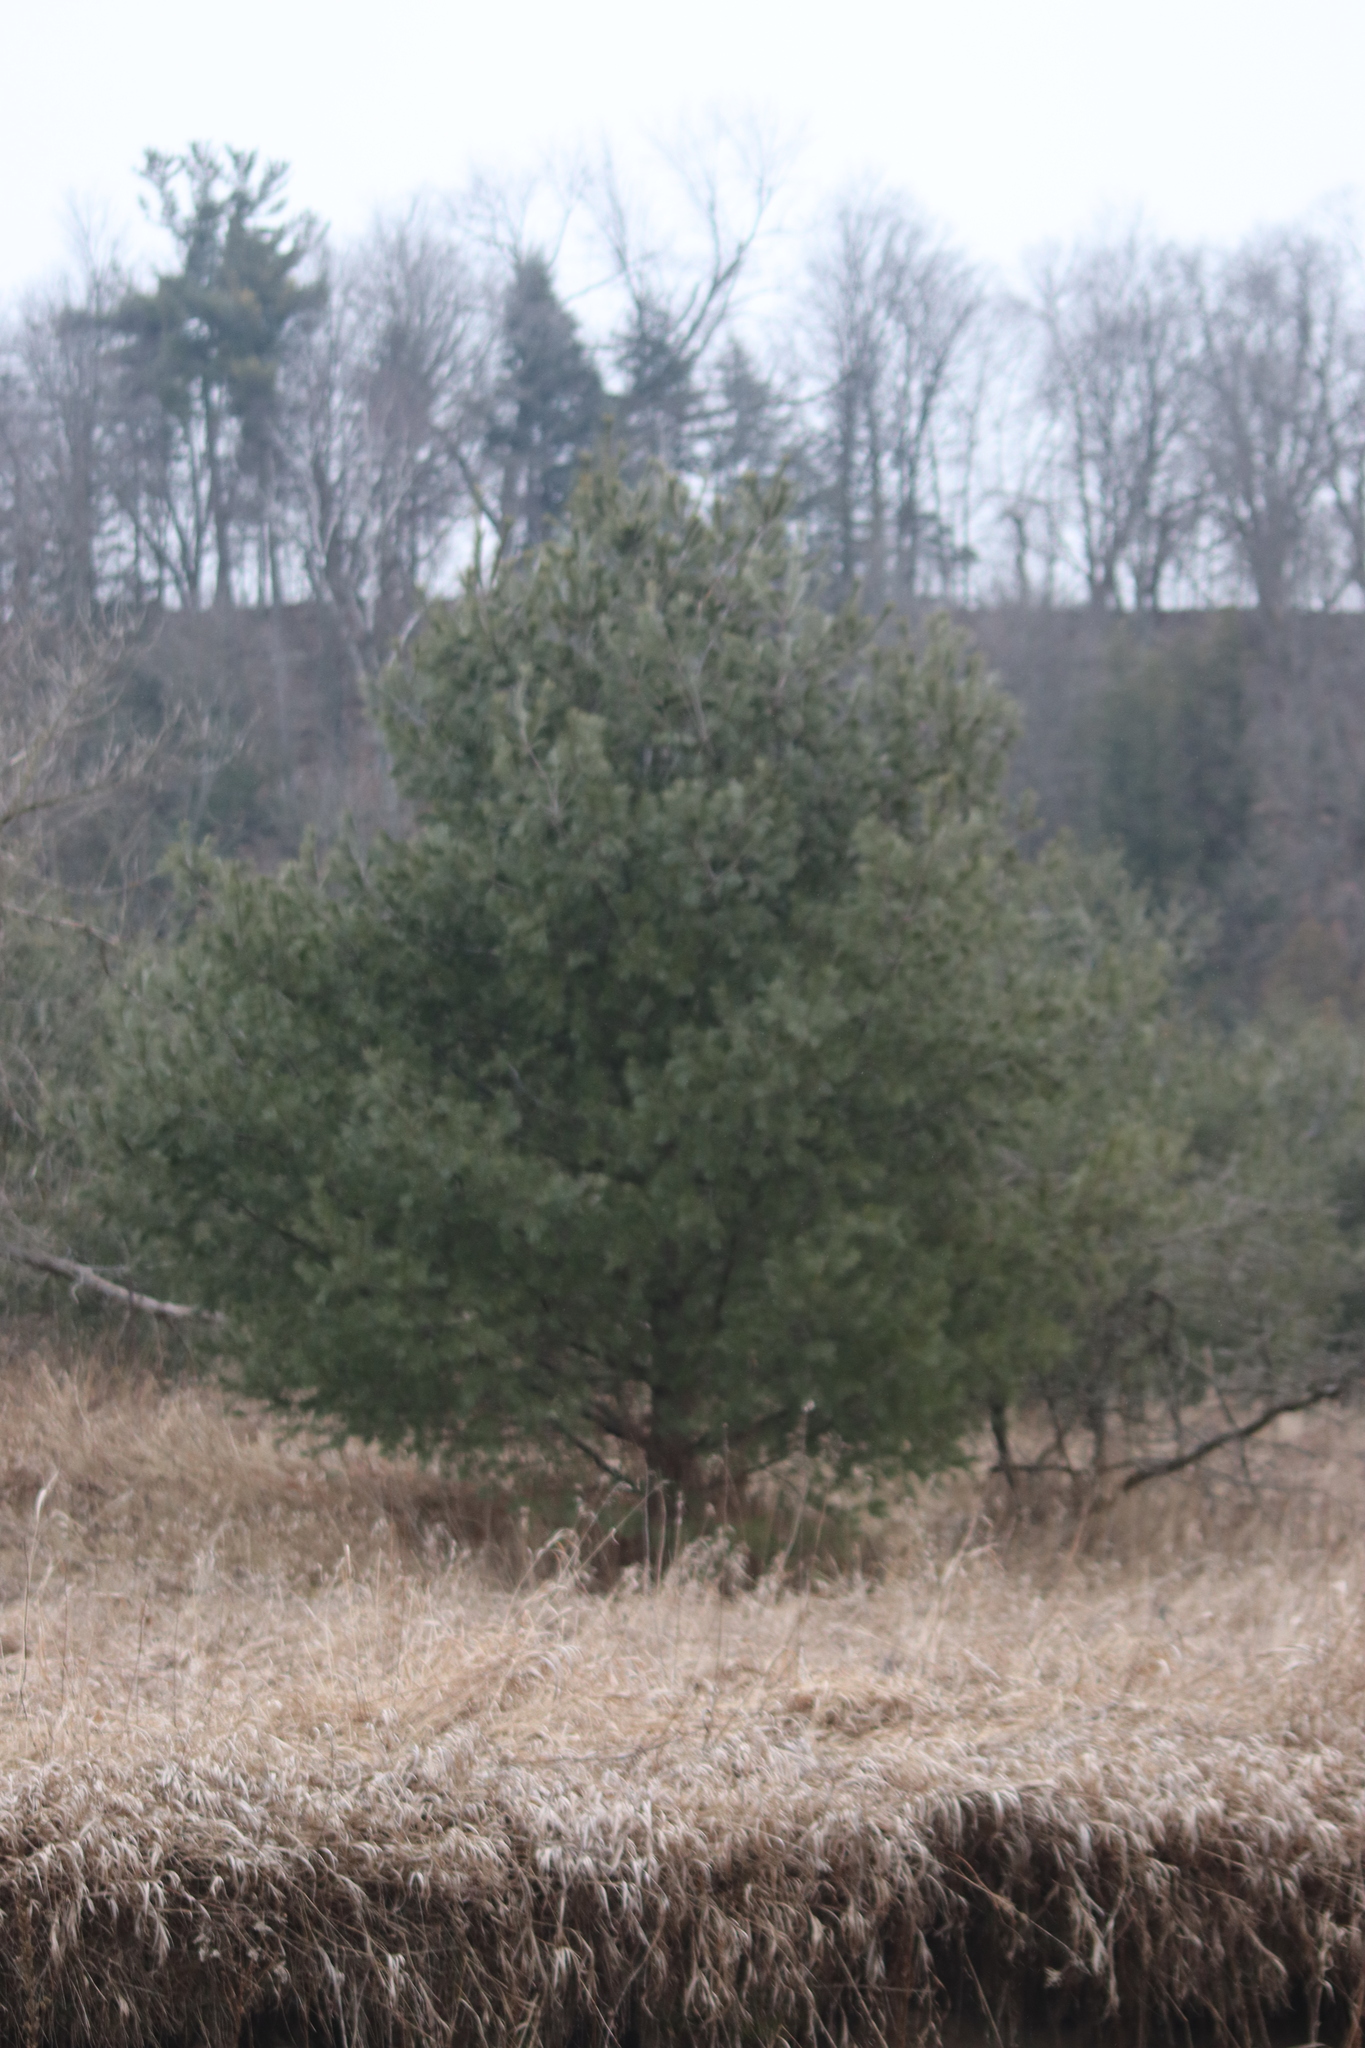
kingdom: Plantae
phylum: Tracheophyta
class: Pinopsida
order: Pinales
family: Pinaceae
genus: Pinus
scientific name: Pinus strobus
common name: Weymouth pine
